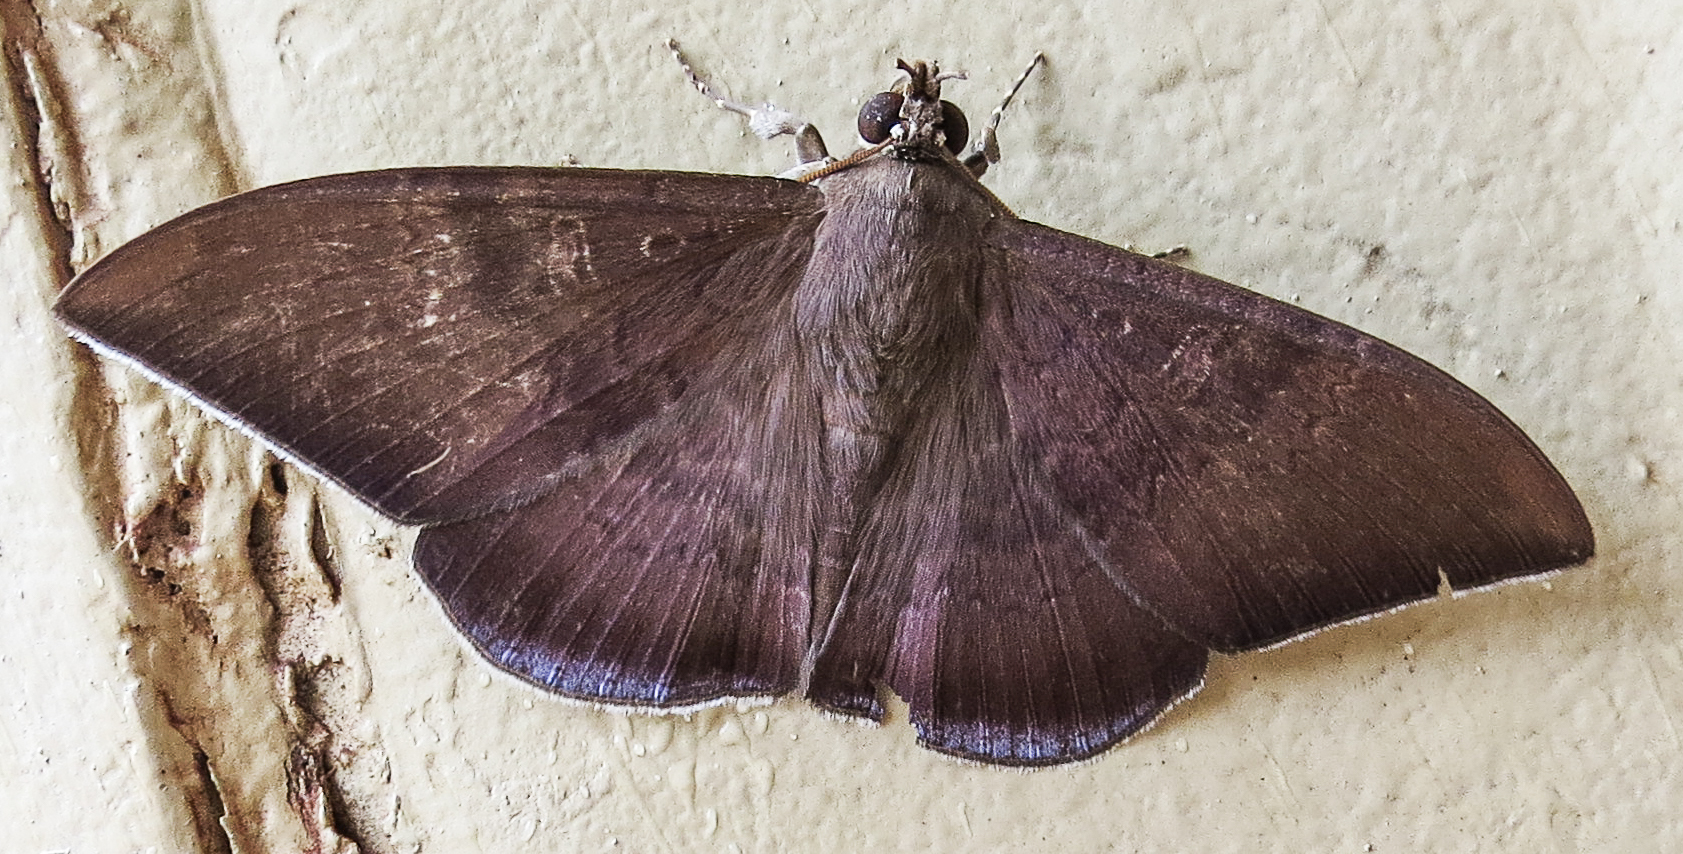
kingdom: Animalia
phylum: Arthropoda
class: Insecta
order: Lepidoptera
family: Erebidae
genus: Hemeroblemma
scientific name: Hemeroblemma dolosina
